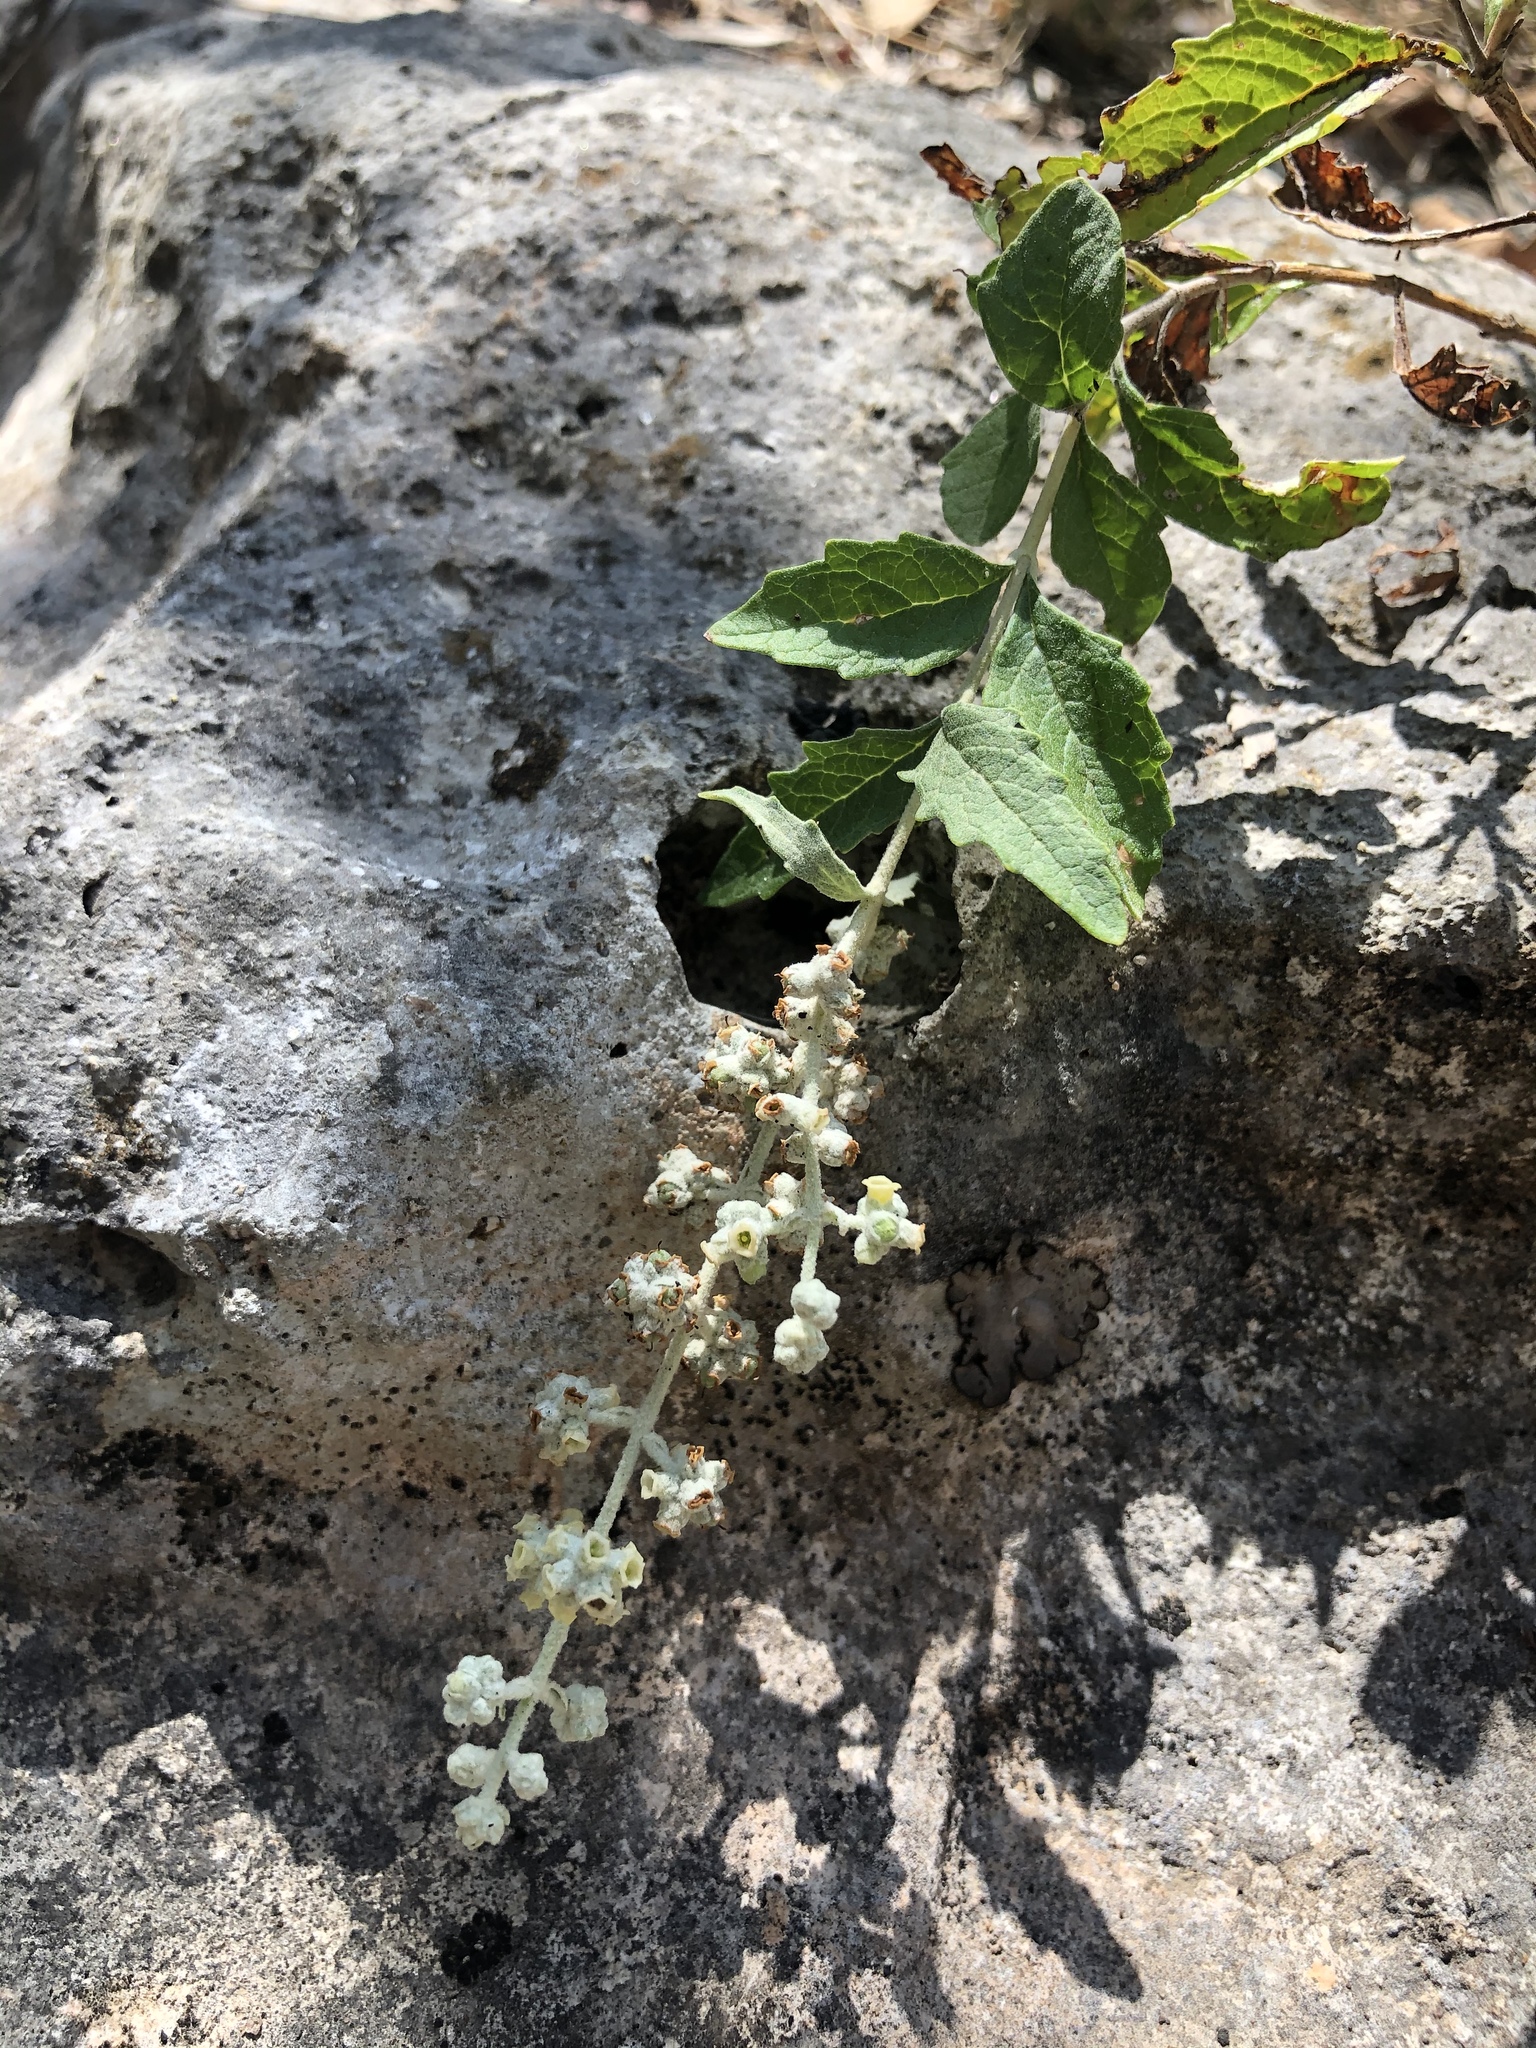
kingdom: Plantae
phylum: Tracheophyta
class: Magnoliopsida
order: Lamiales
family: Scrophulariaceae
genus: Buddleja
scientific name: Buddleja racemosa
